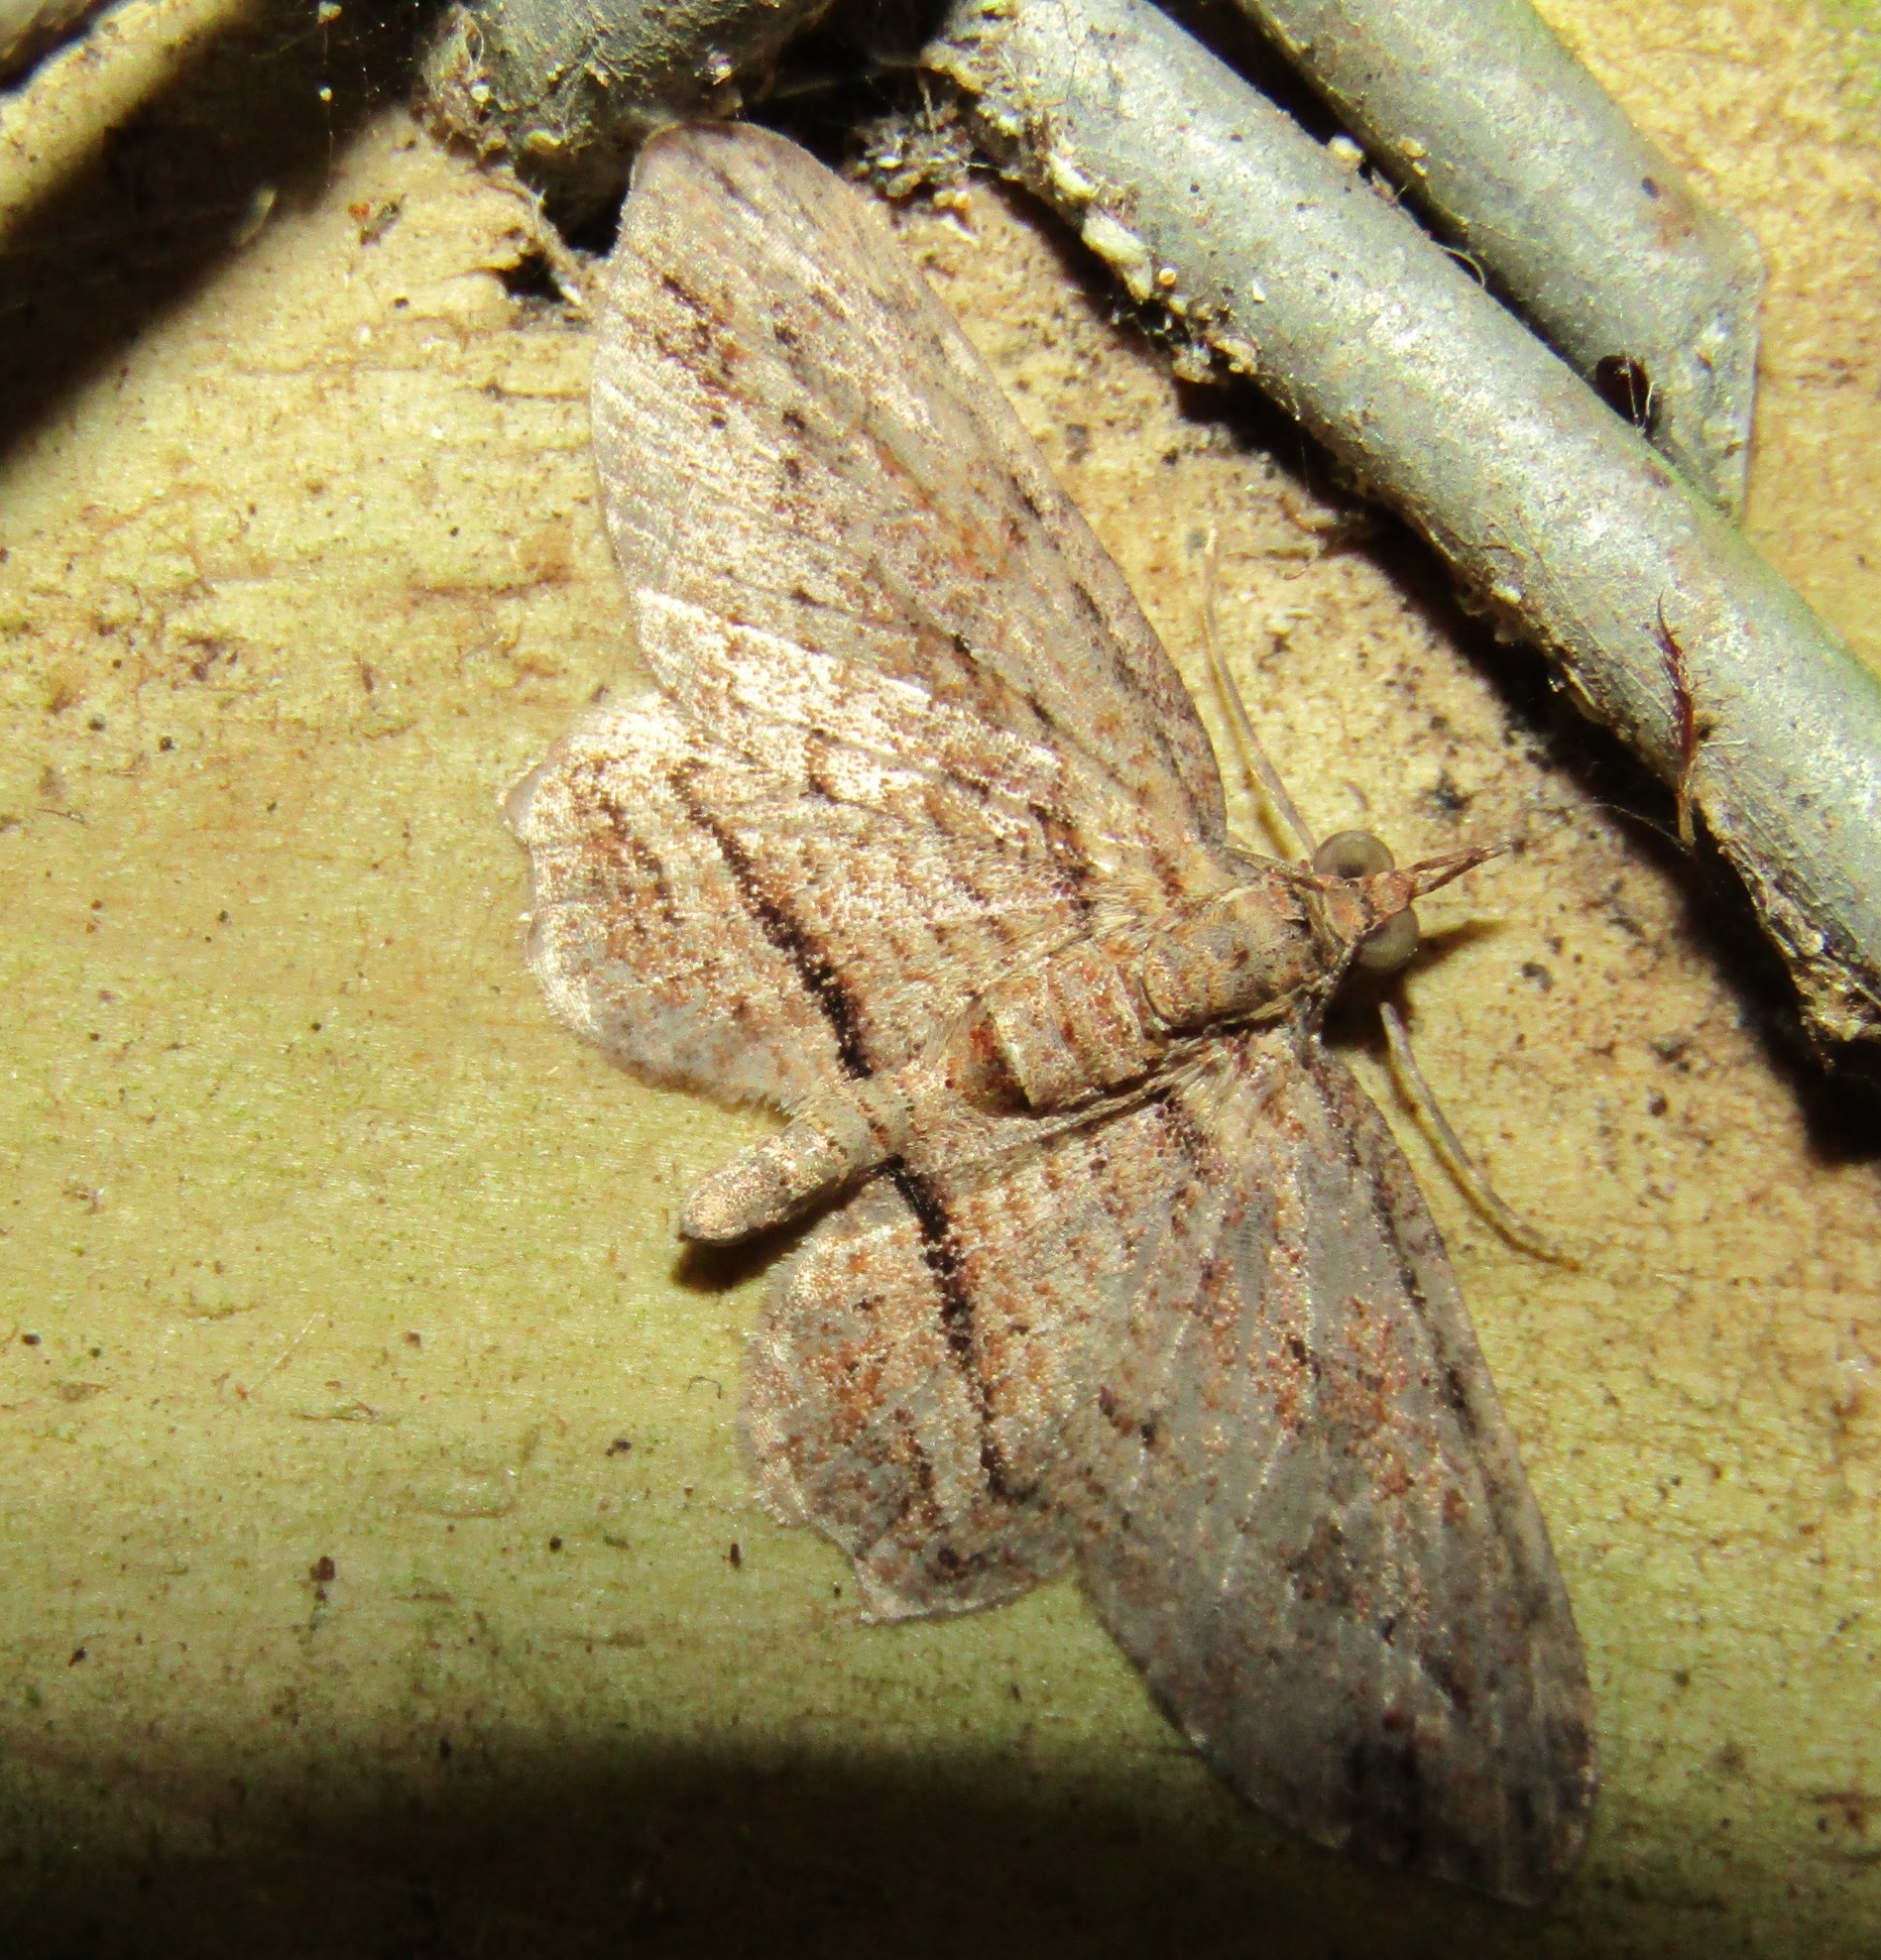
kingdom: Animalia
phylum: Arthropoda
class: Insecta
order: Lepidoptera
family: Geometridae
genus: Chloroclystis
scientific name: Chloroclystis filata
